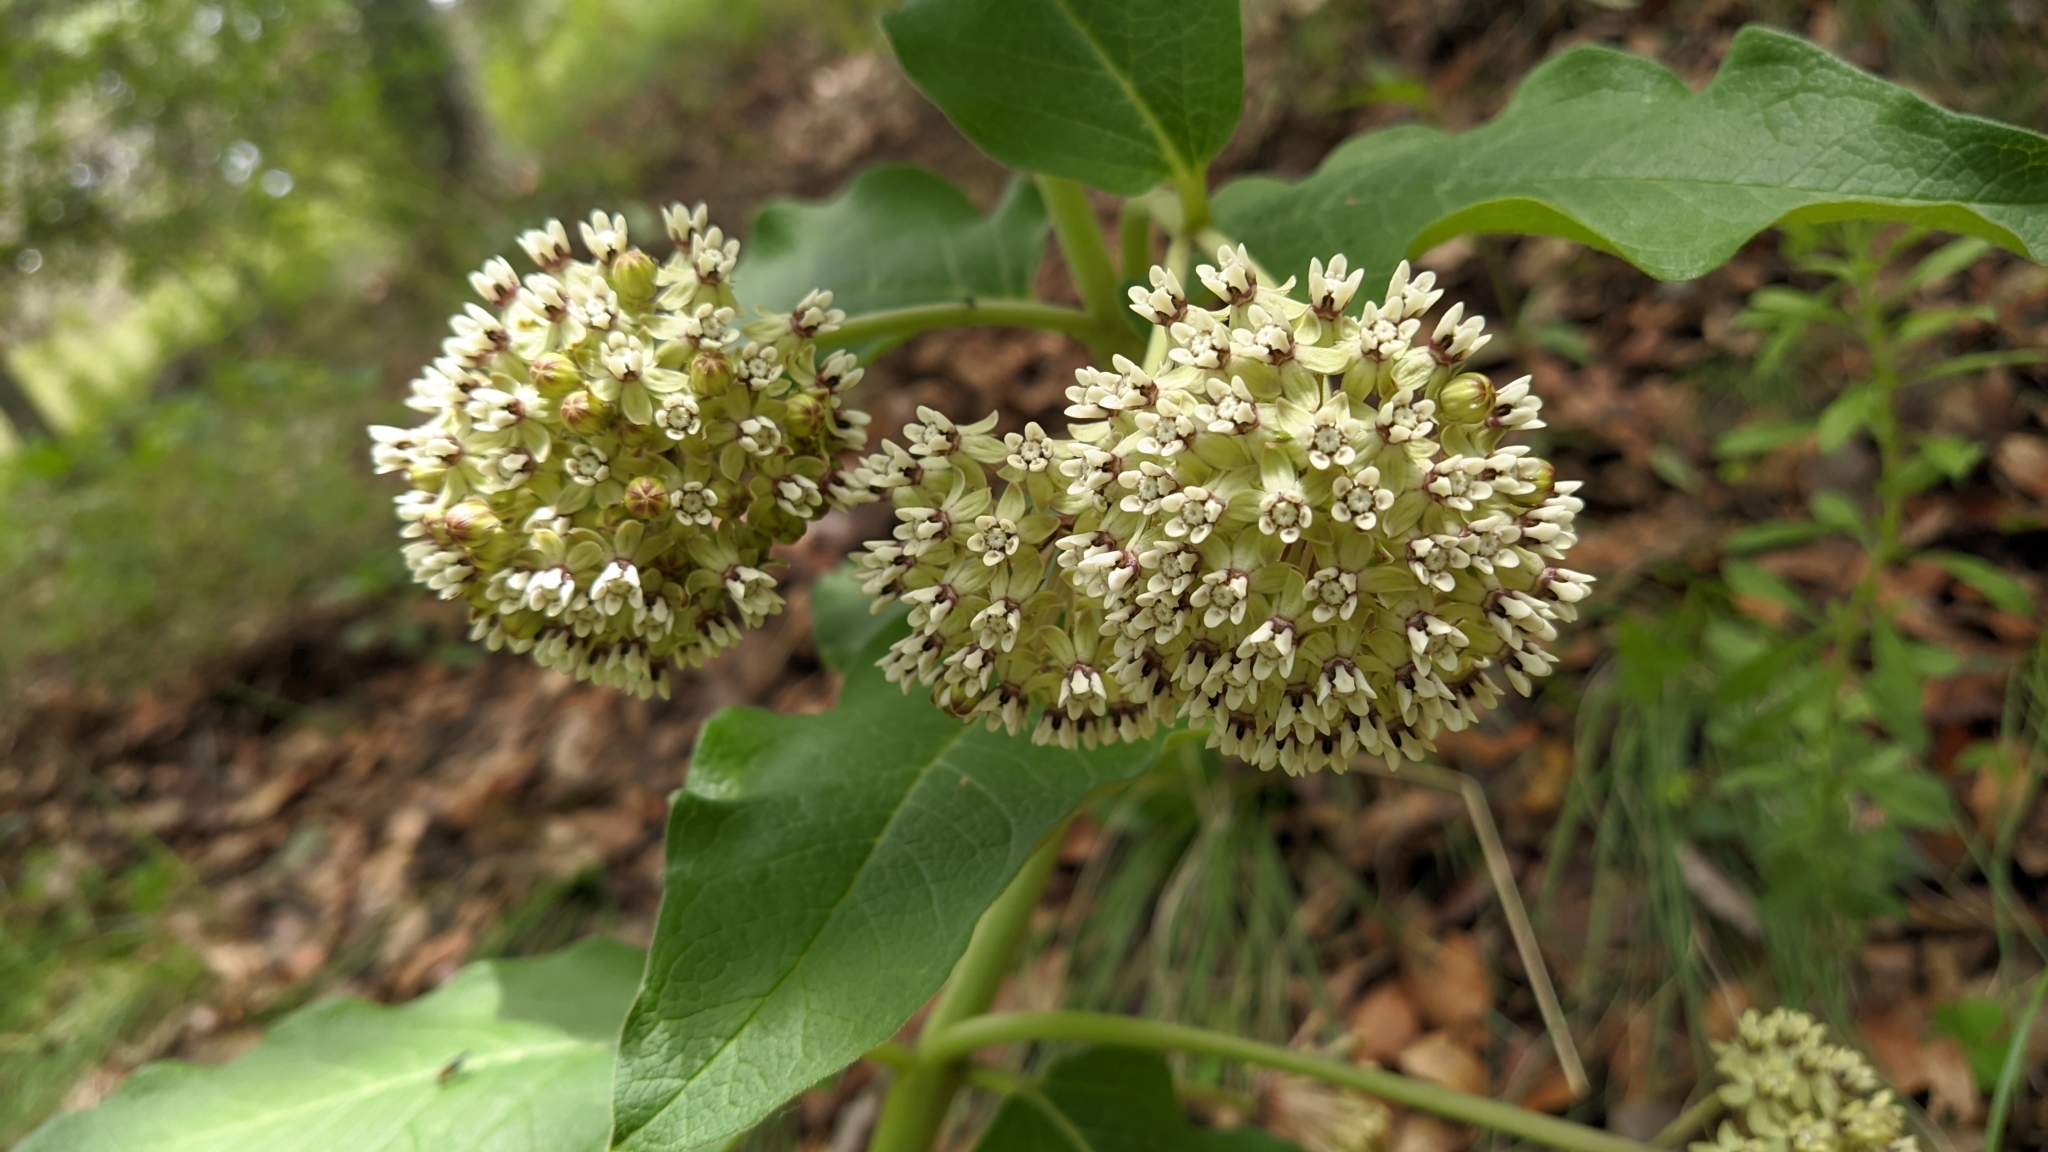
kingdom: Plantae
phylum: Tracheophyta
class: Magnoliopsida
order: Gentianales
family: Apocynaceae
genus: Asclepias
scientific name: Asclepias pringlei
